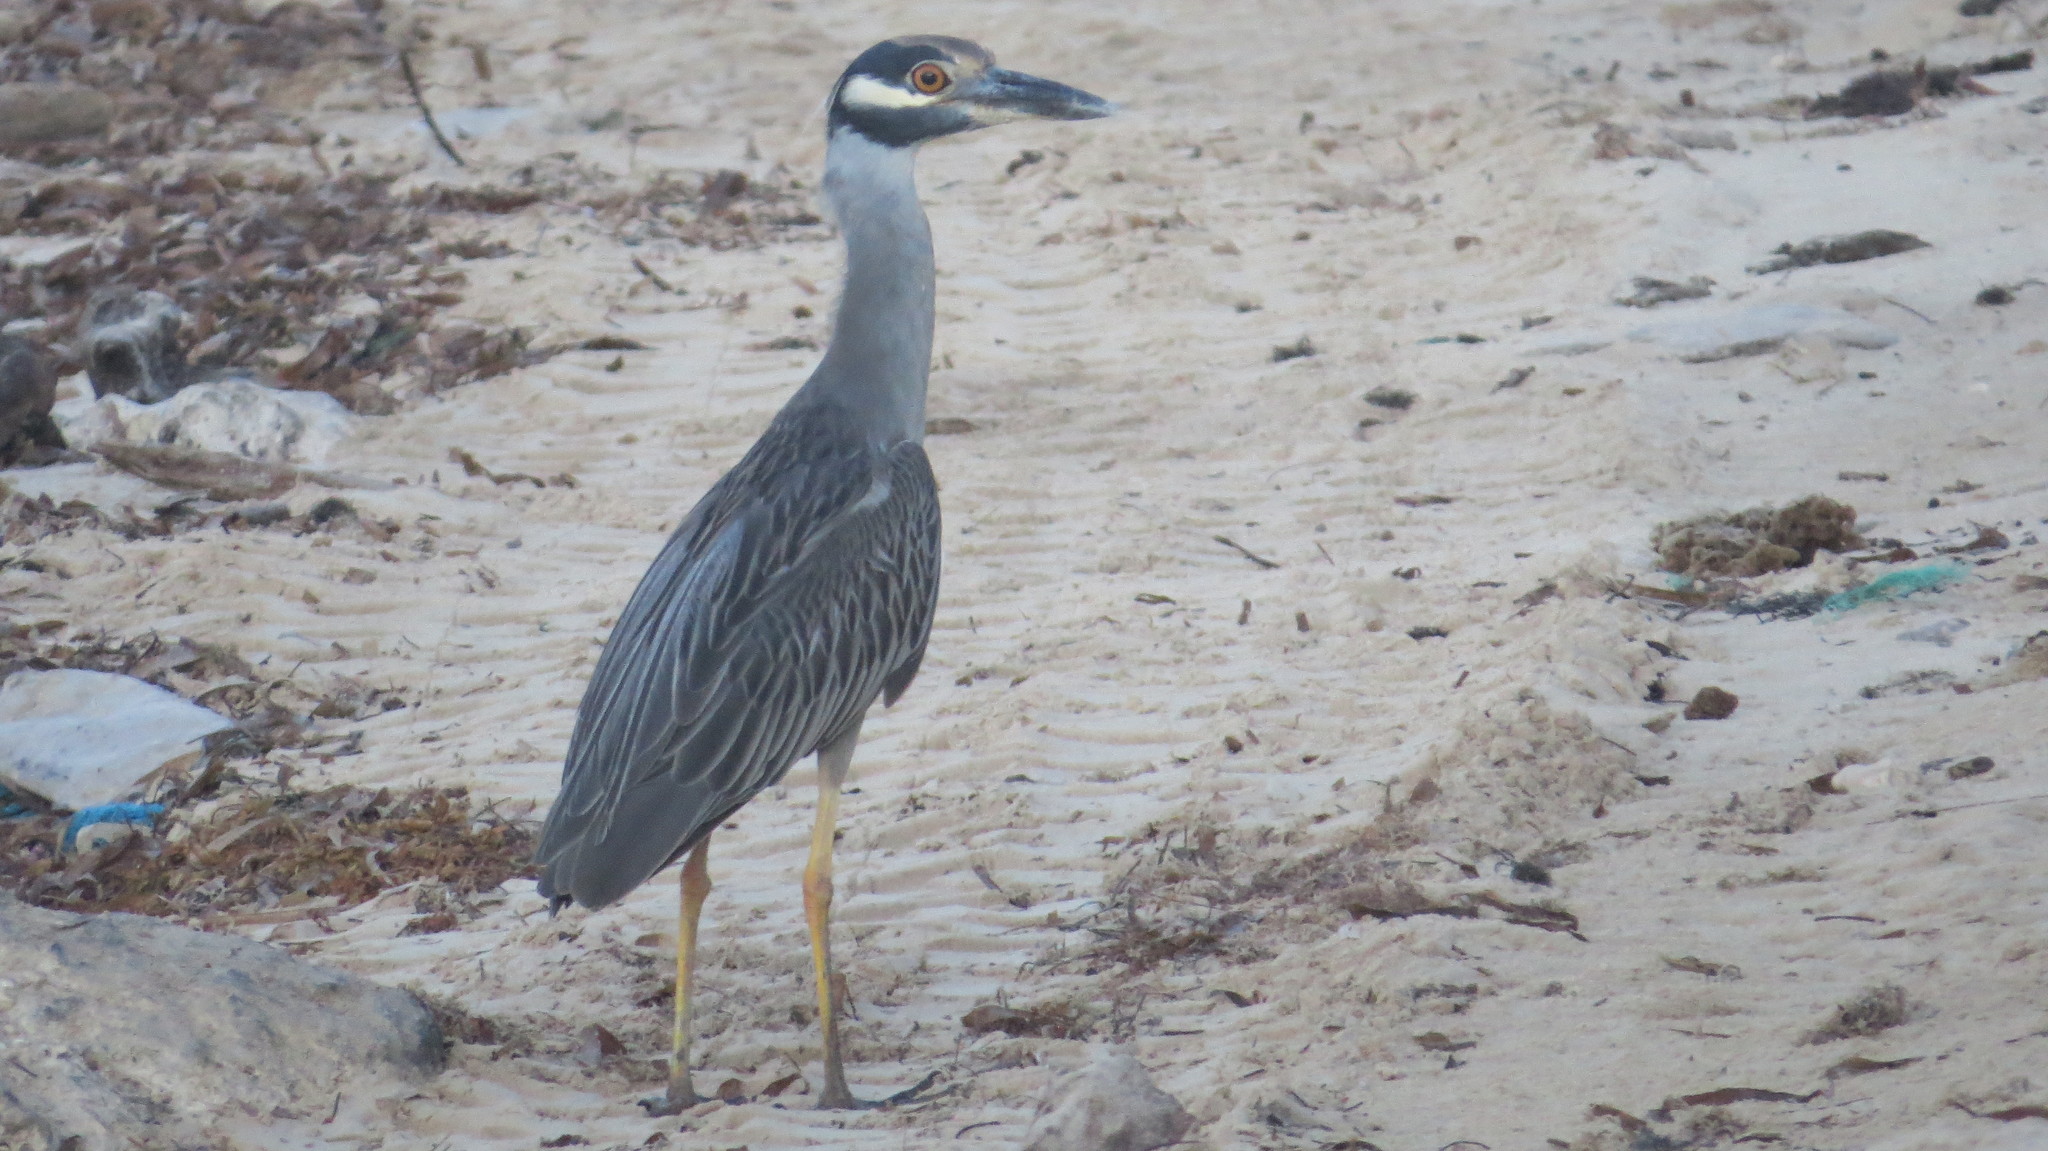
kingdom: Animalia
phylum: Chordata
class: Aves
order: Pelecaniformes
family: Ardeidae
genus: Nyctanassa
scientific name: Nyctanassa violacea
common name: Yellow-crowned night heron
